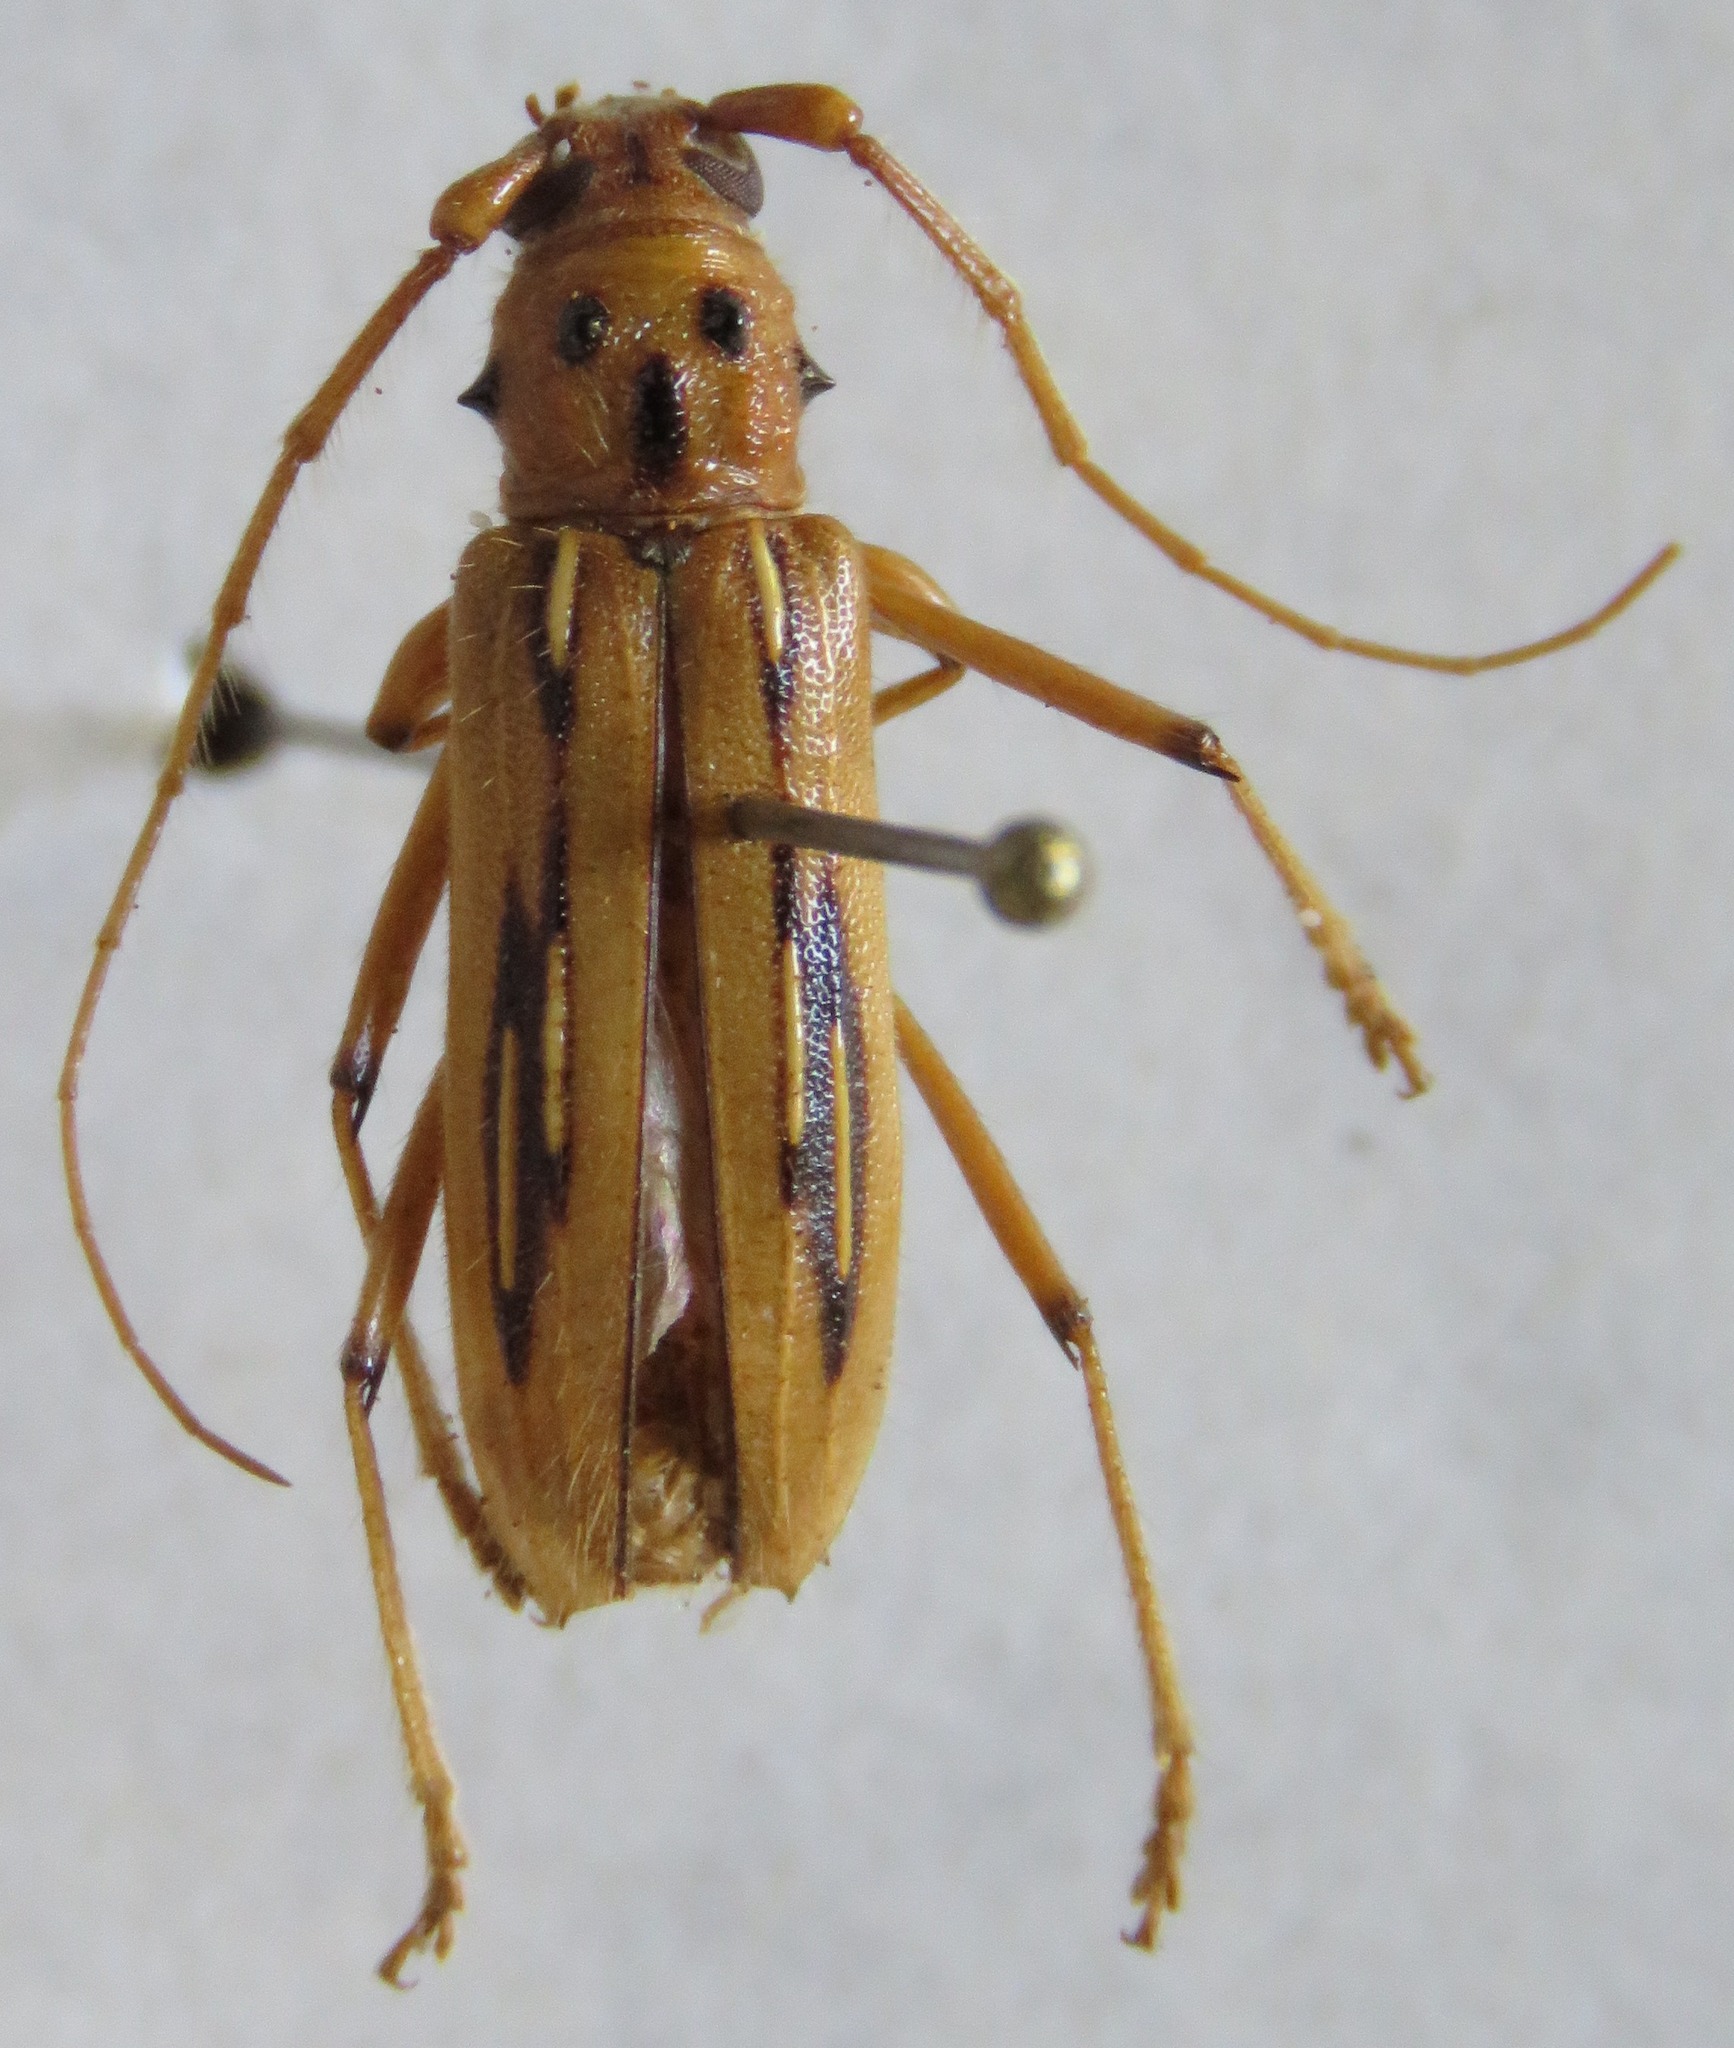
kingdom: Animalia
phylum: Arthropoda
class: Insecta
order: Coleoptera
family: Cerambycidae
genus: Eburodacrys
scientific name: Eburodacrys nemorivaga
